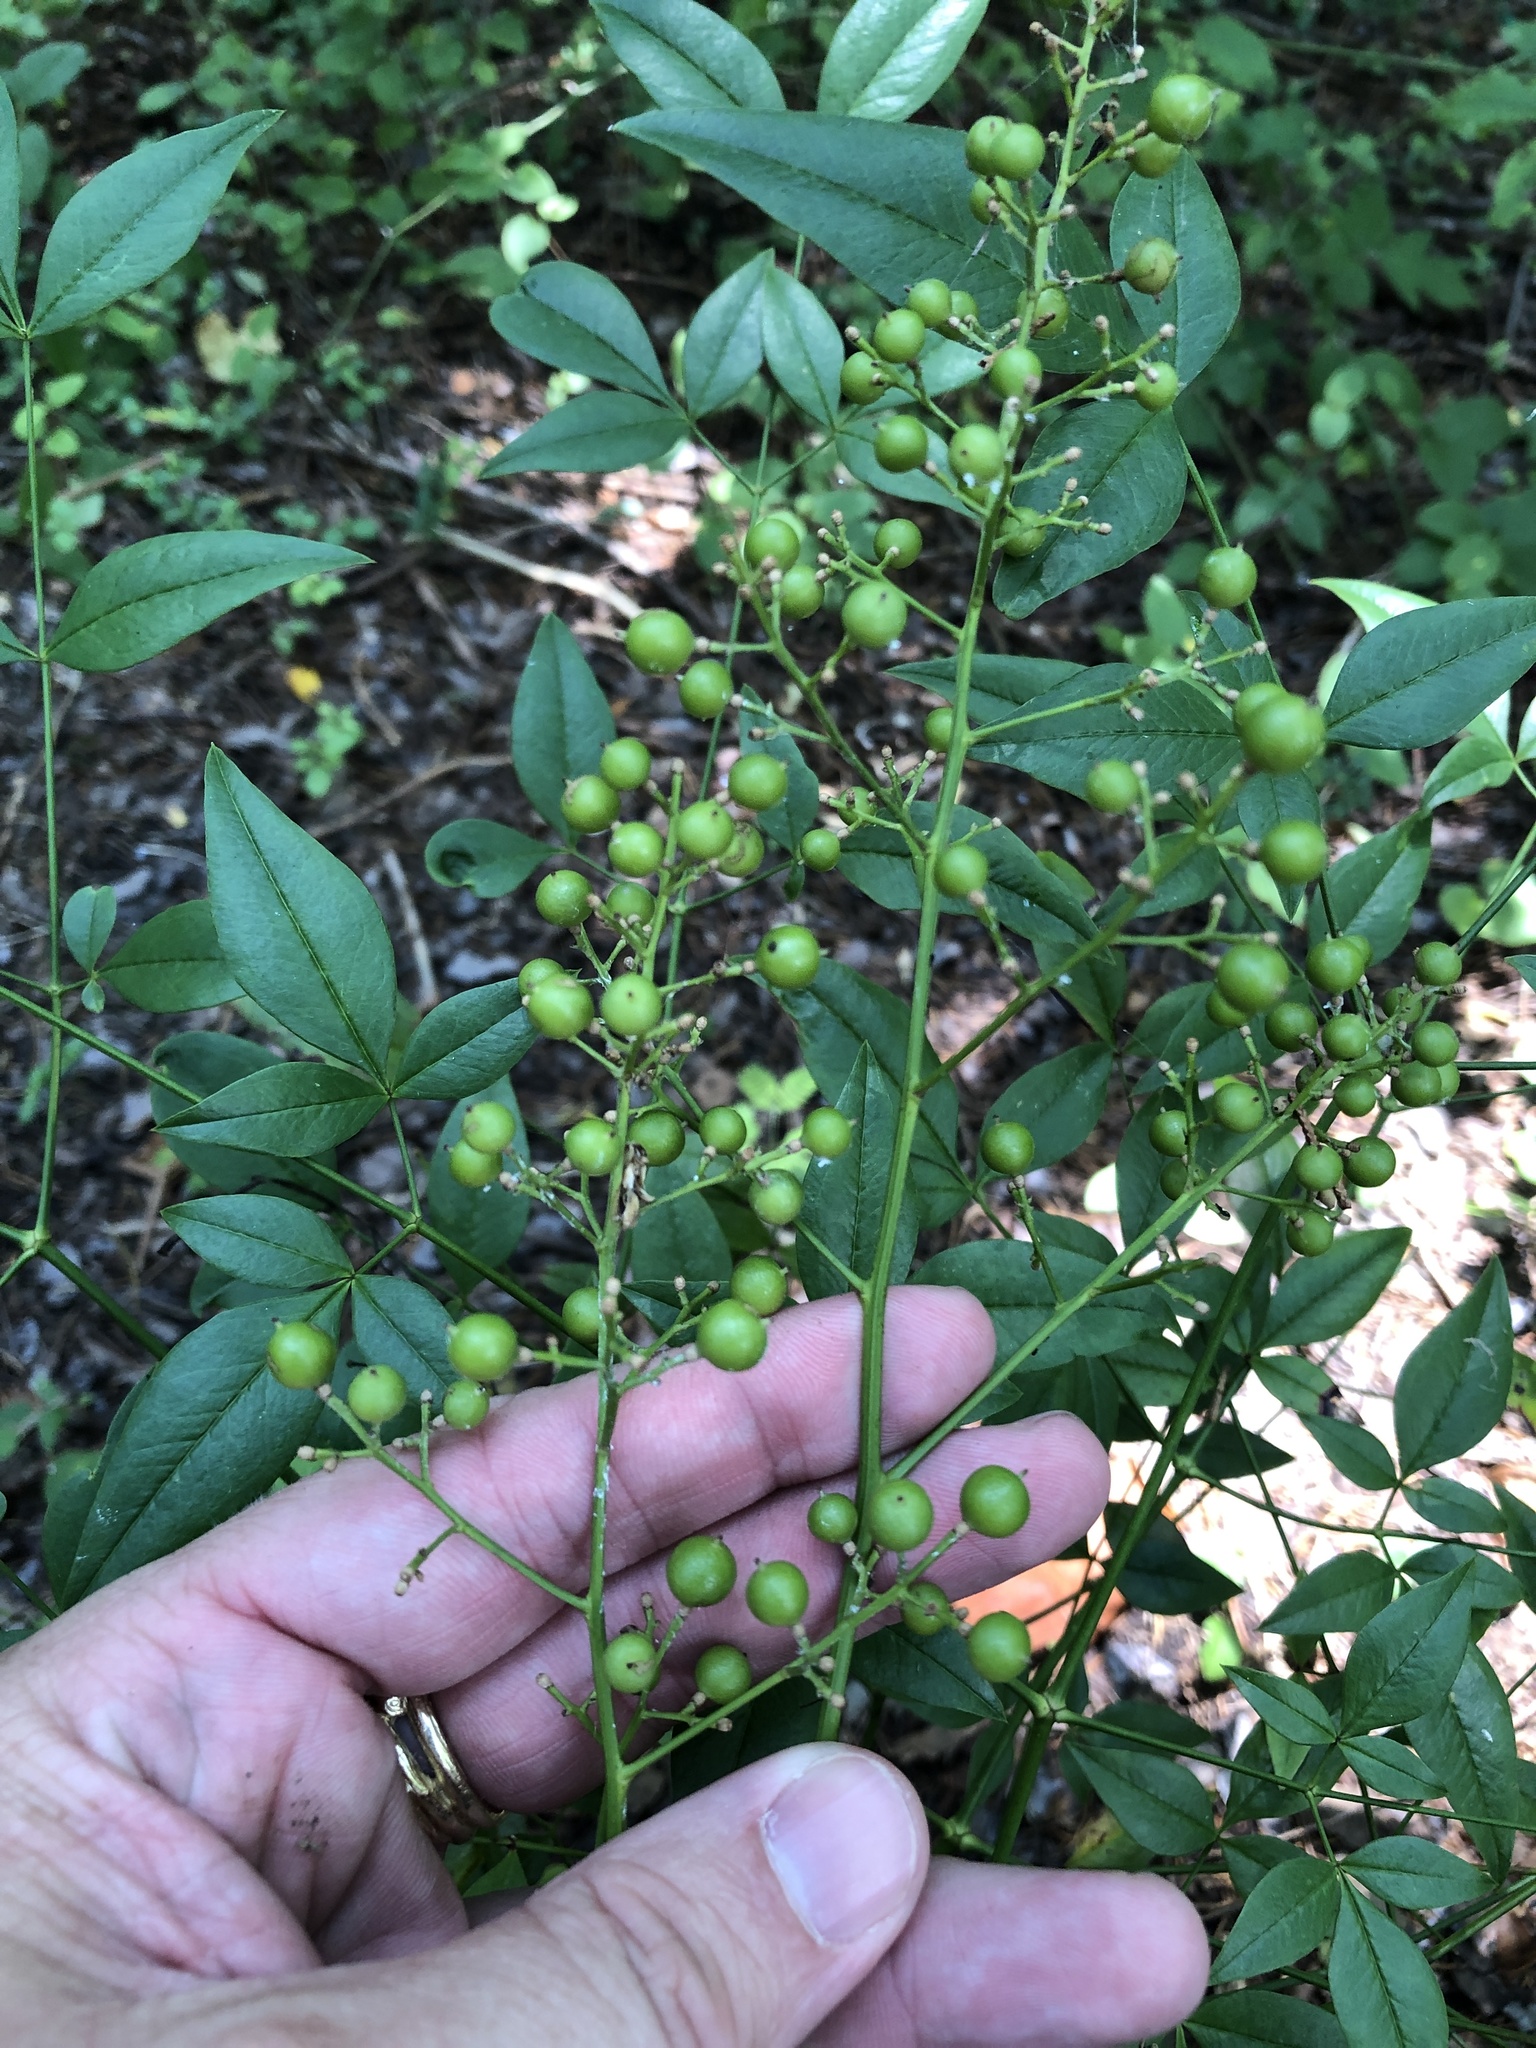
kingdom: Plantae
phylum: Tracheophyta
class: Magnoliopsida
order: Ranunculales
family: Berberidaceae
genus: Nandina
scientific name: Nandina domestica
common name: Sacred bamboo
